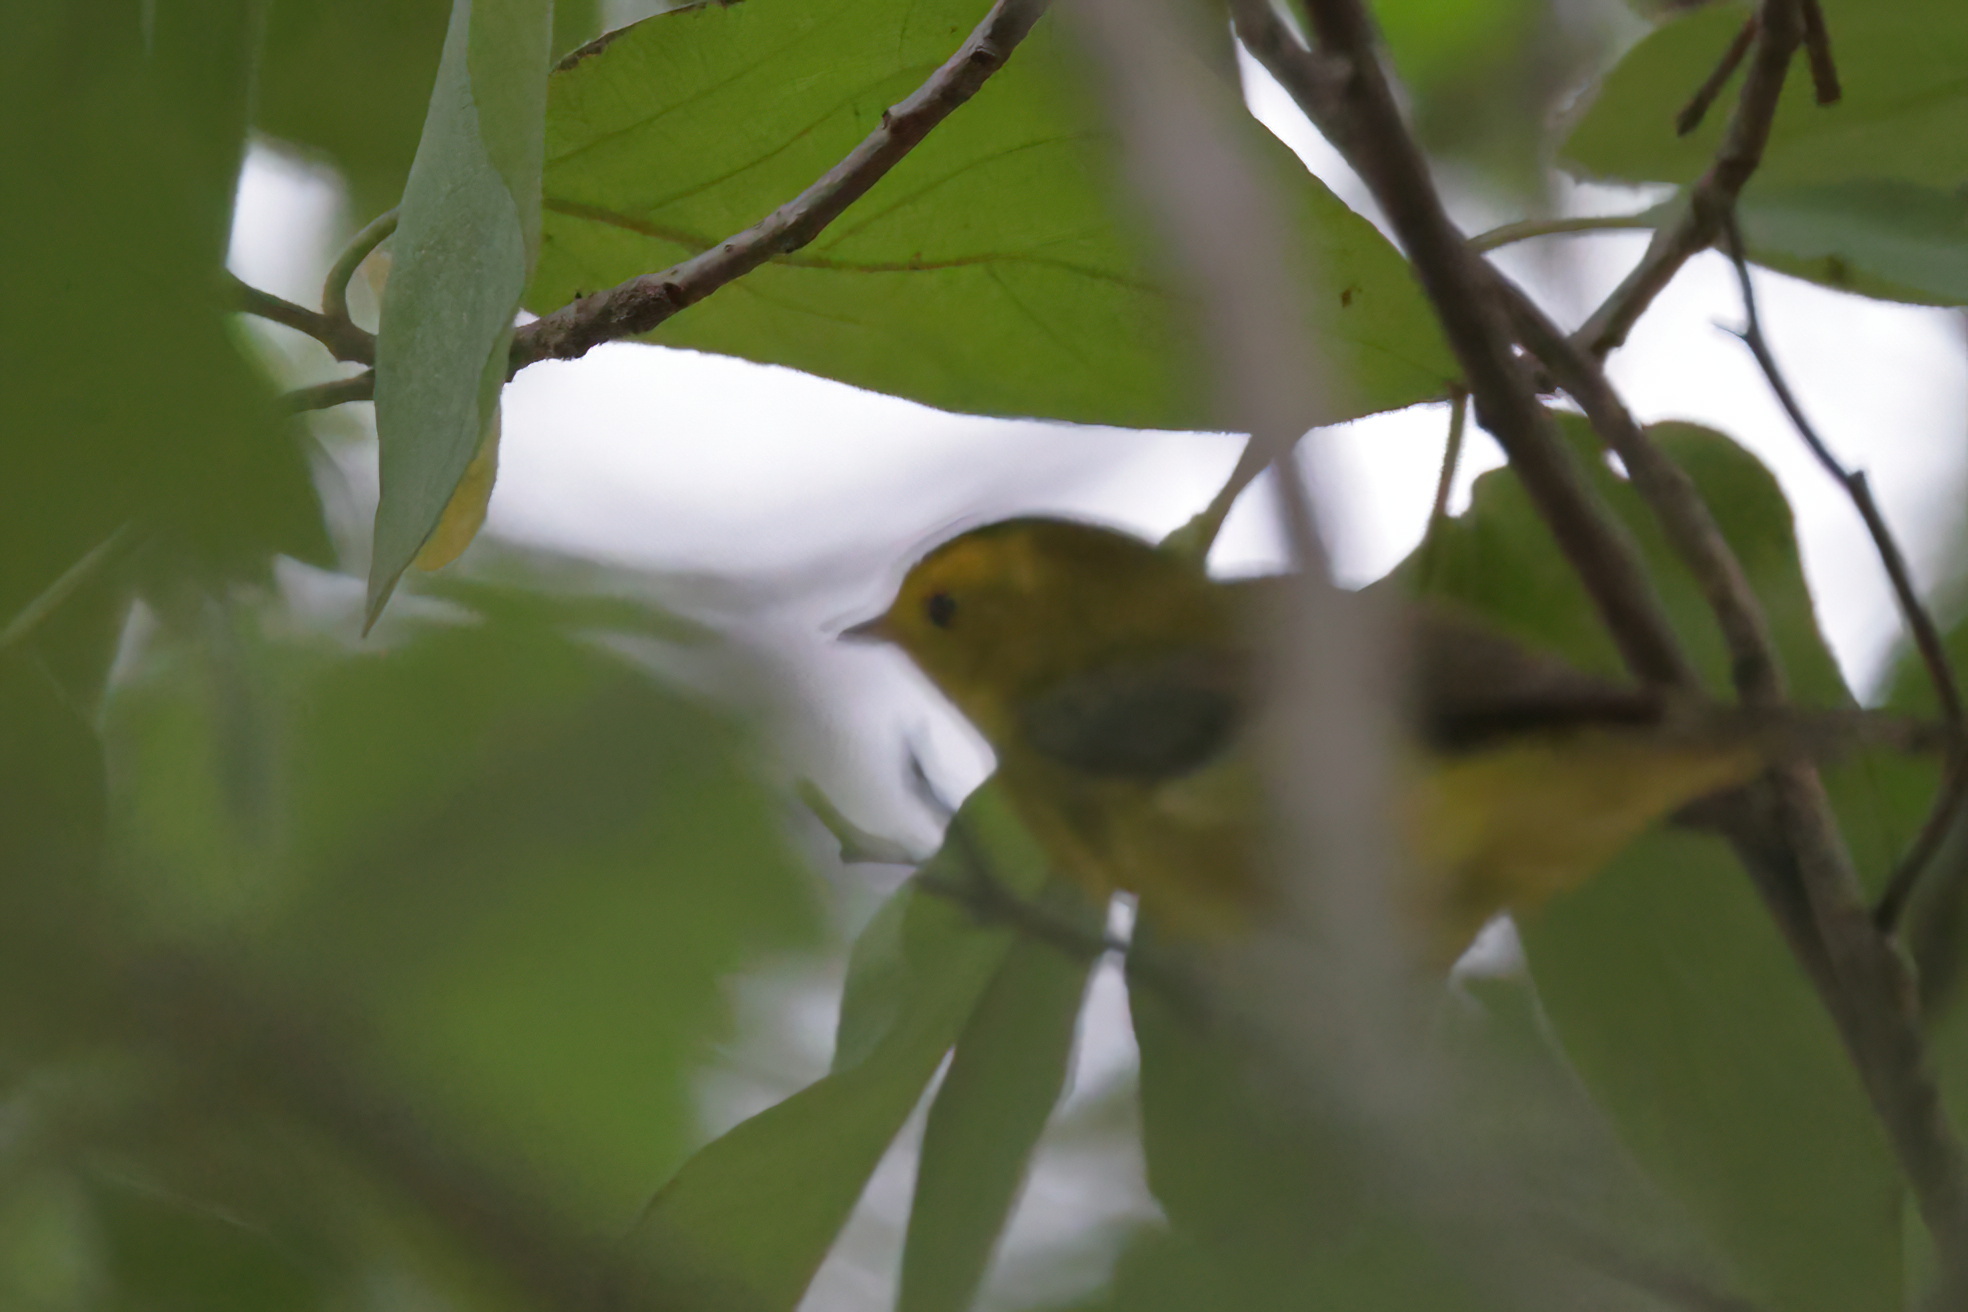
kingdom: Animalia
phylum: Chordata
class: Aves
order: Passeriformes
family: Parulidae
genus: Cardellina
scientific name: Cardellina pusilla
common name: Wilson's warbler
